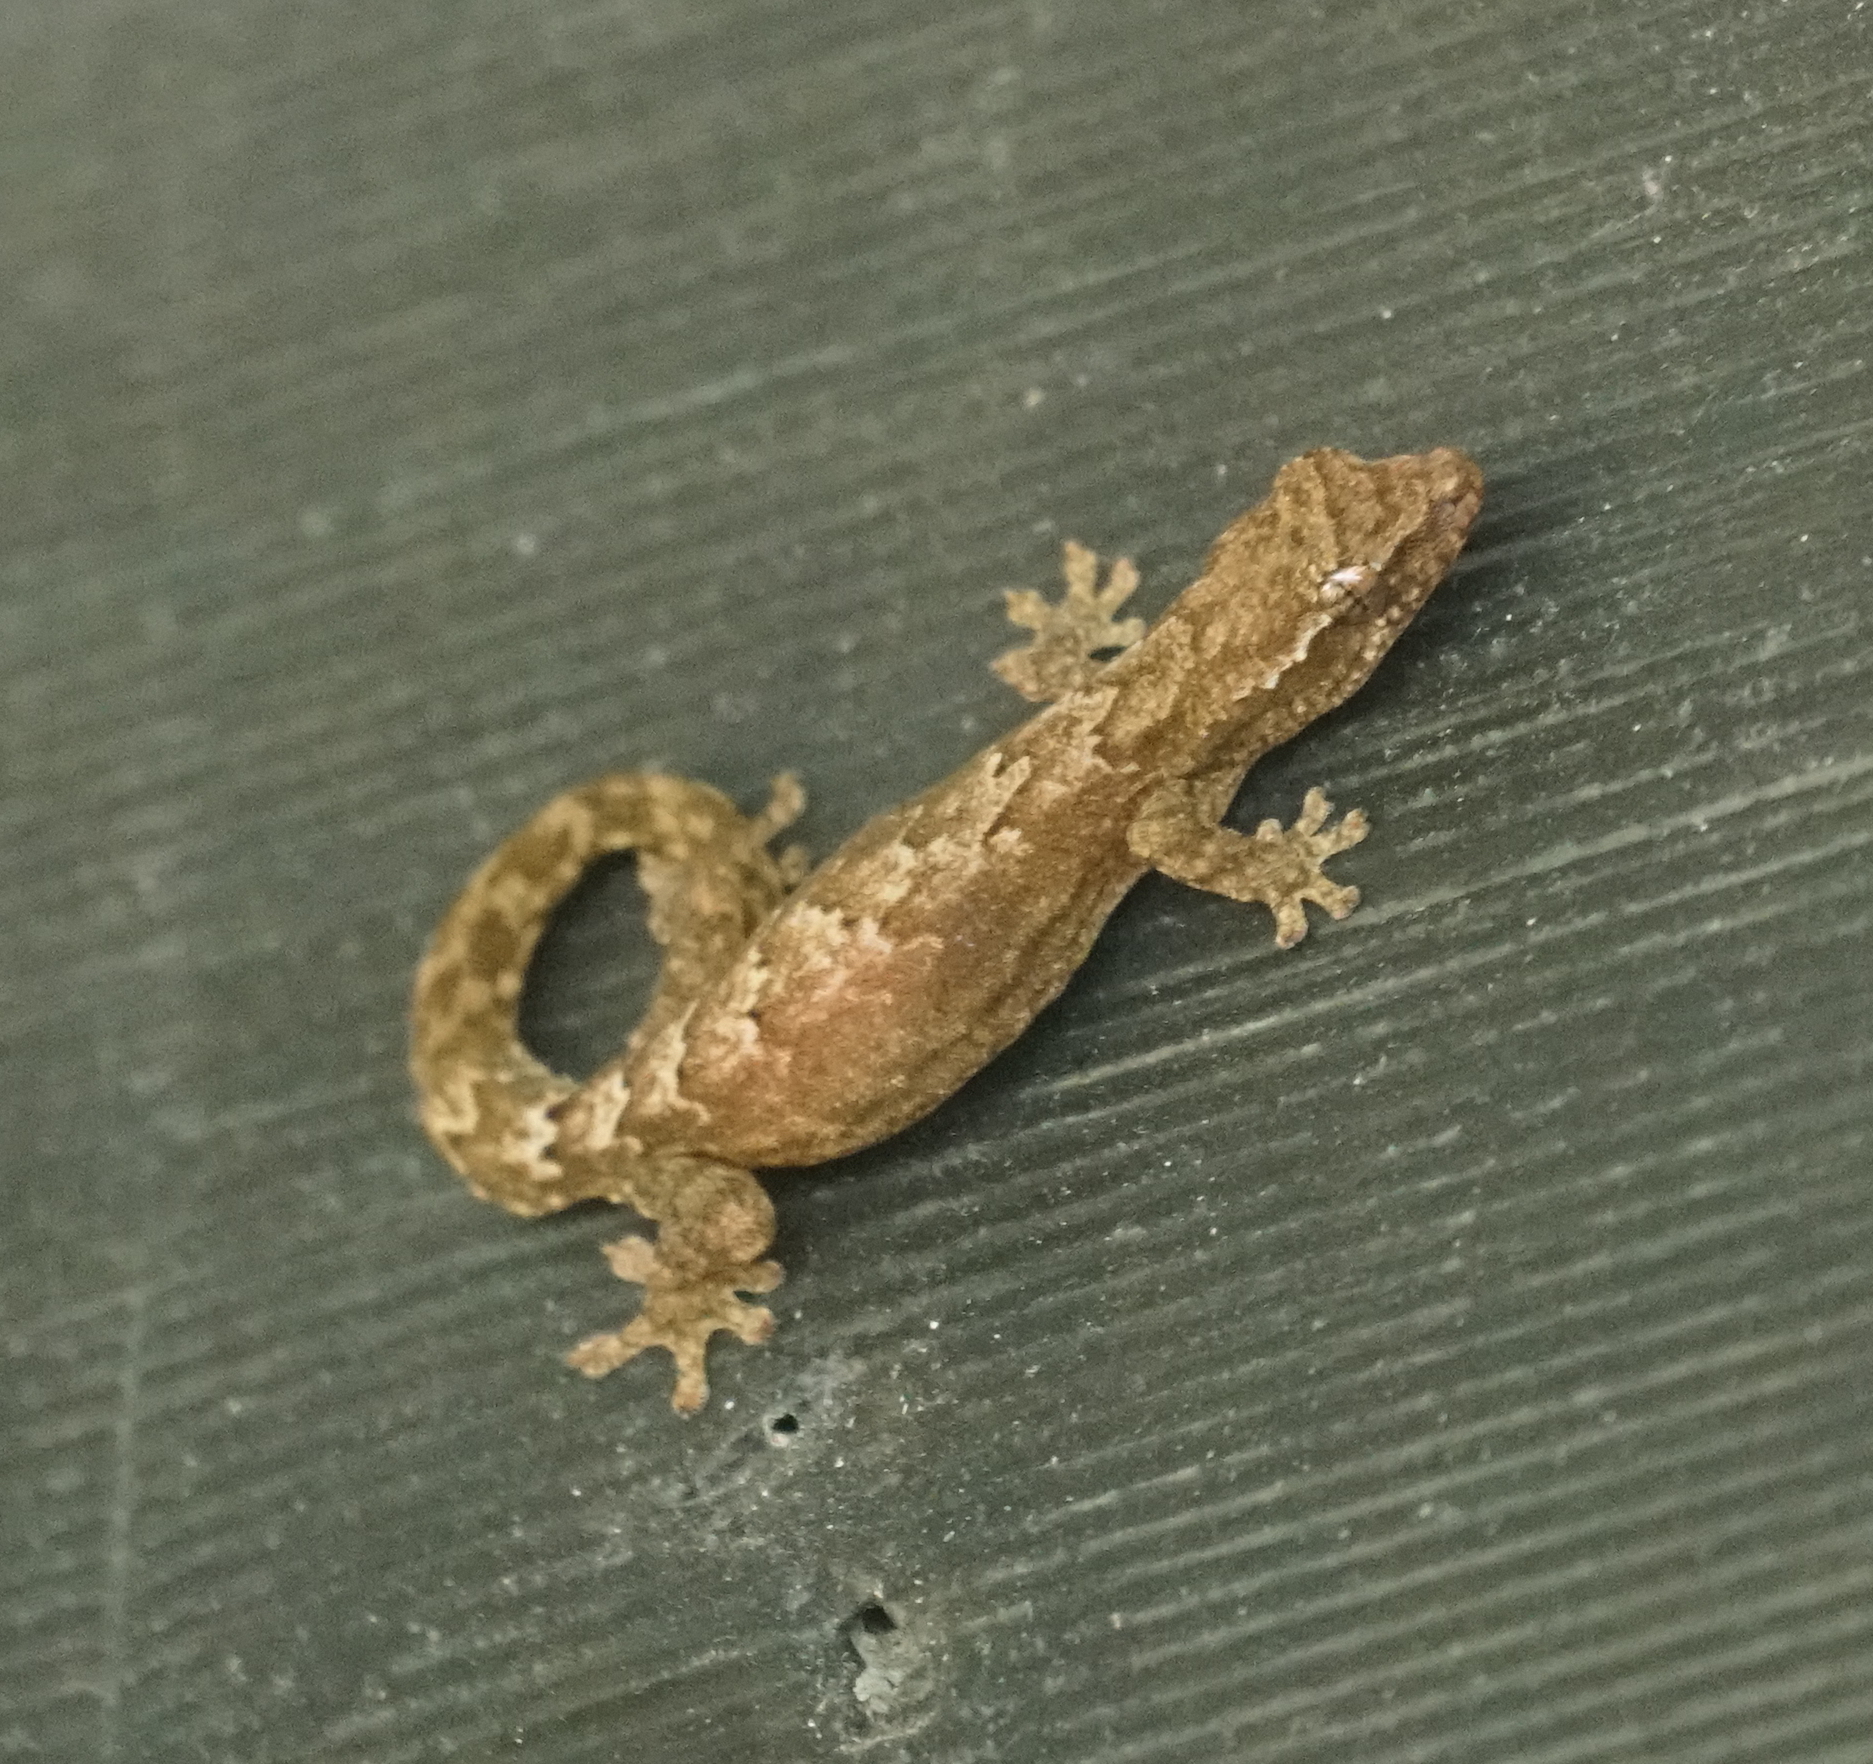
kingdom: Animalia
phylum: Chordata
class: Squamata
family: Gekkonidae
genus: Lepidodactylus
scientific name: Lepidodactylus lugubris
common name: Mourning gecko
